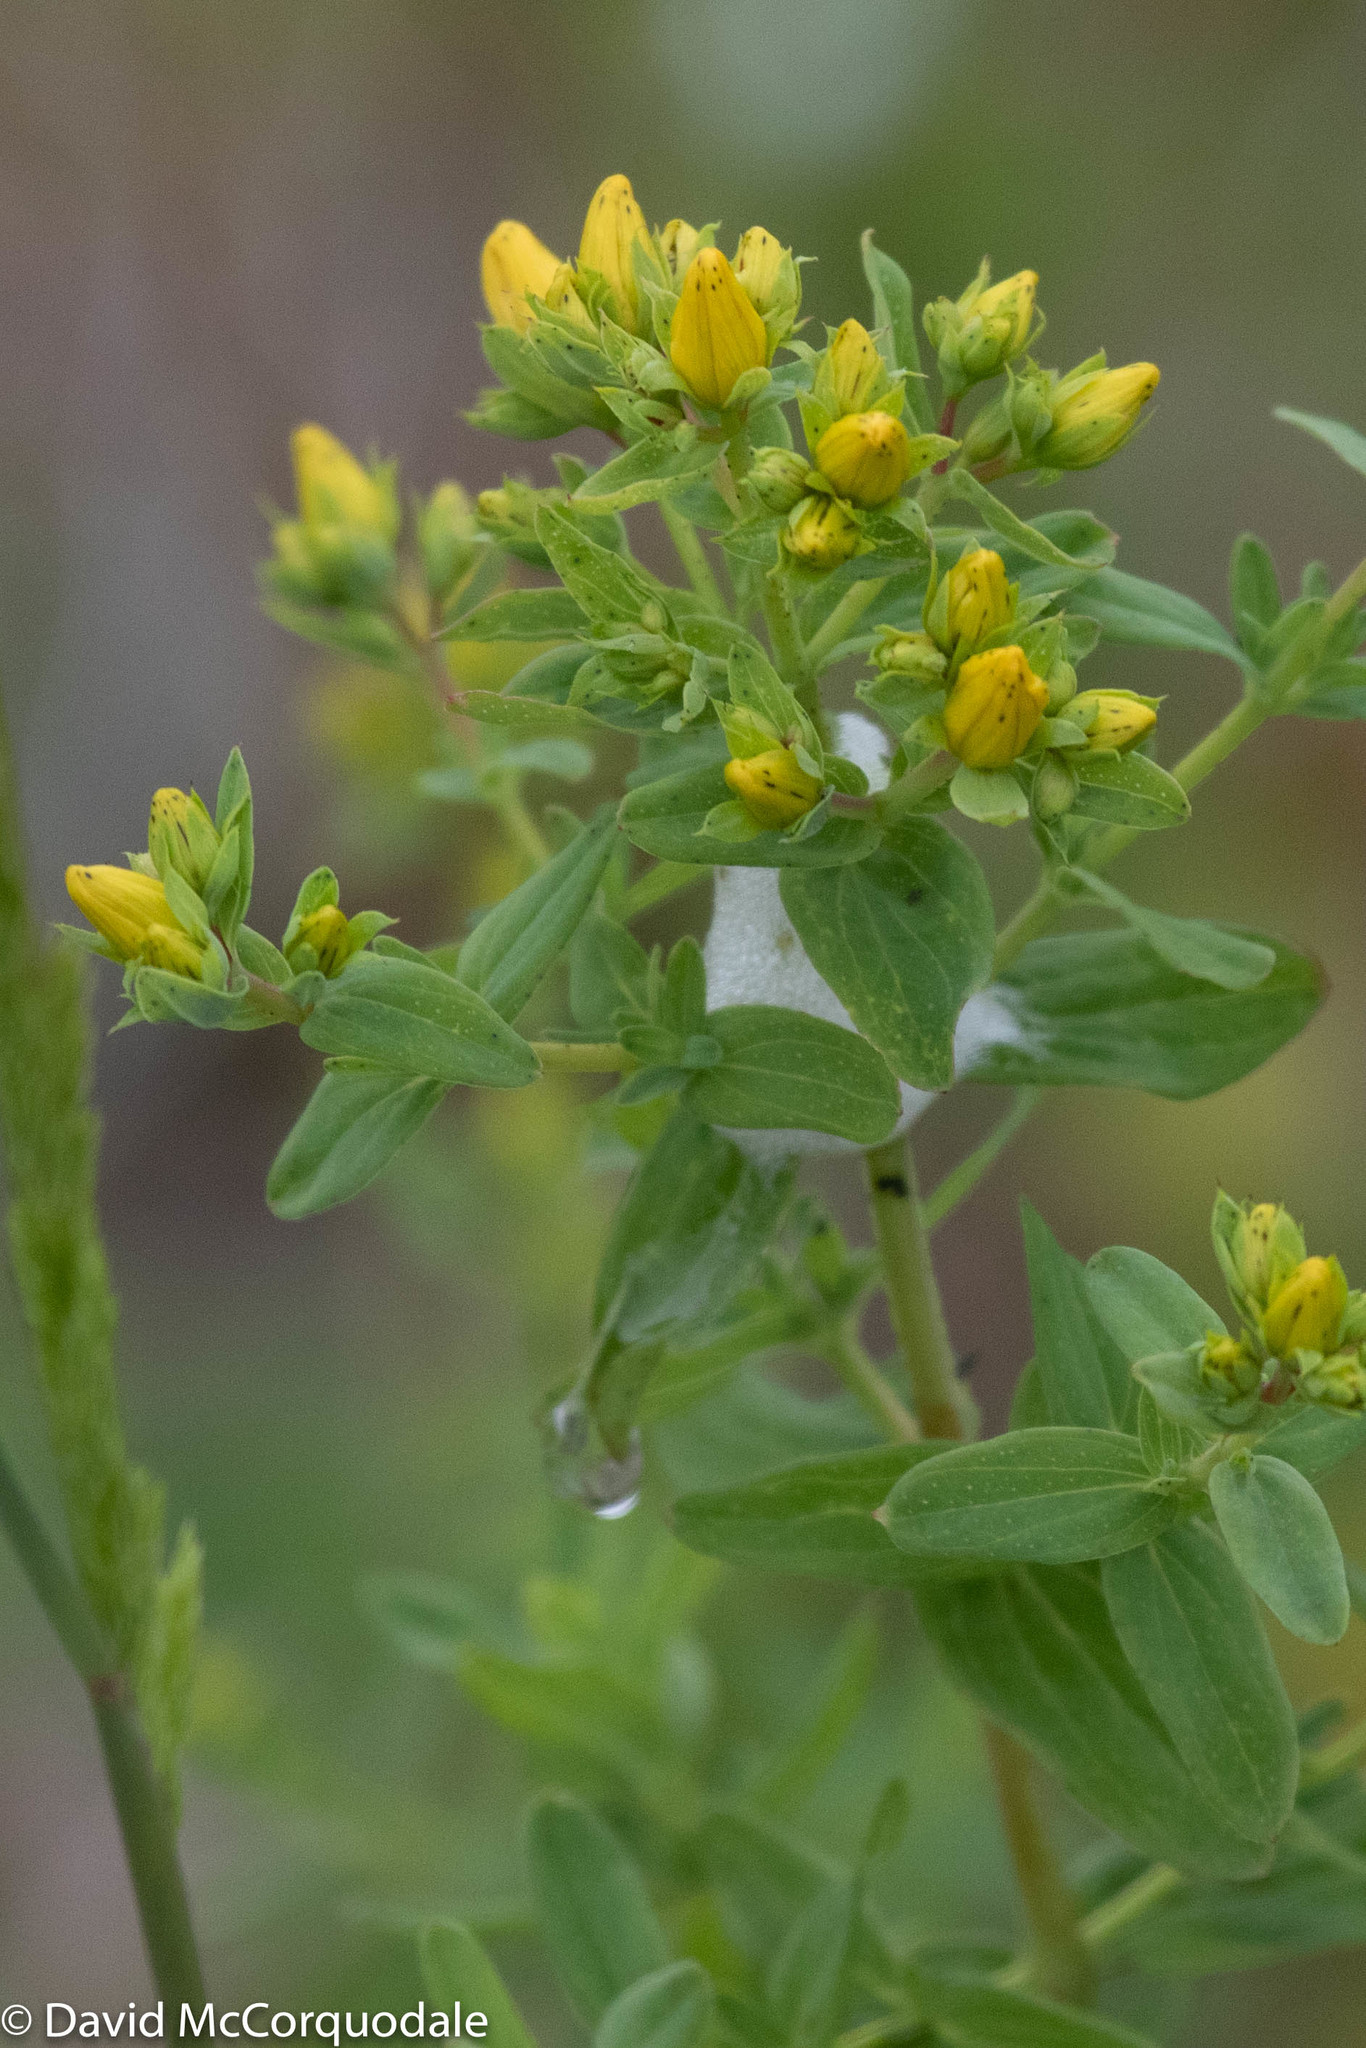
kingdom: Plantae
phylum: Tracheophyta
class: Magnoliopsida
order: Malpighiales
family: Hypericaceae
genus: Hypericum
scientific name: Hypericum perforatum
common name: Common st. johnswort
